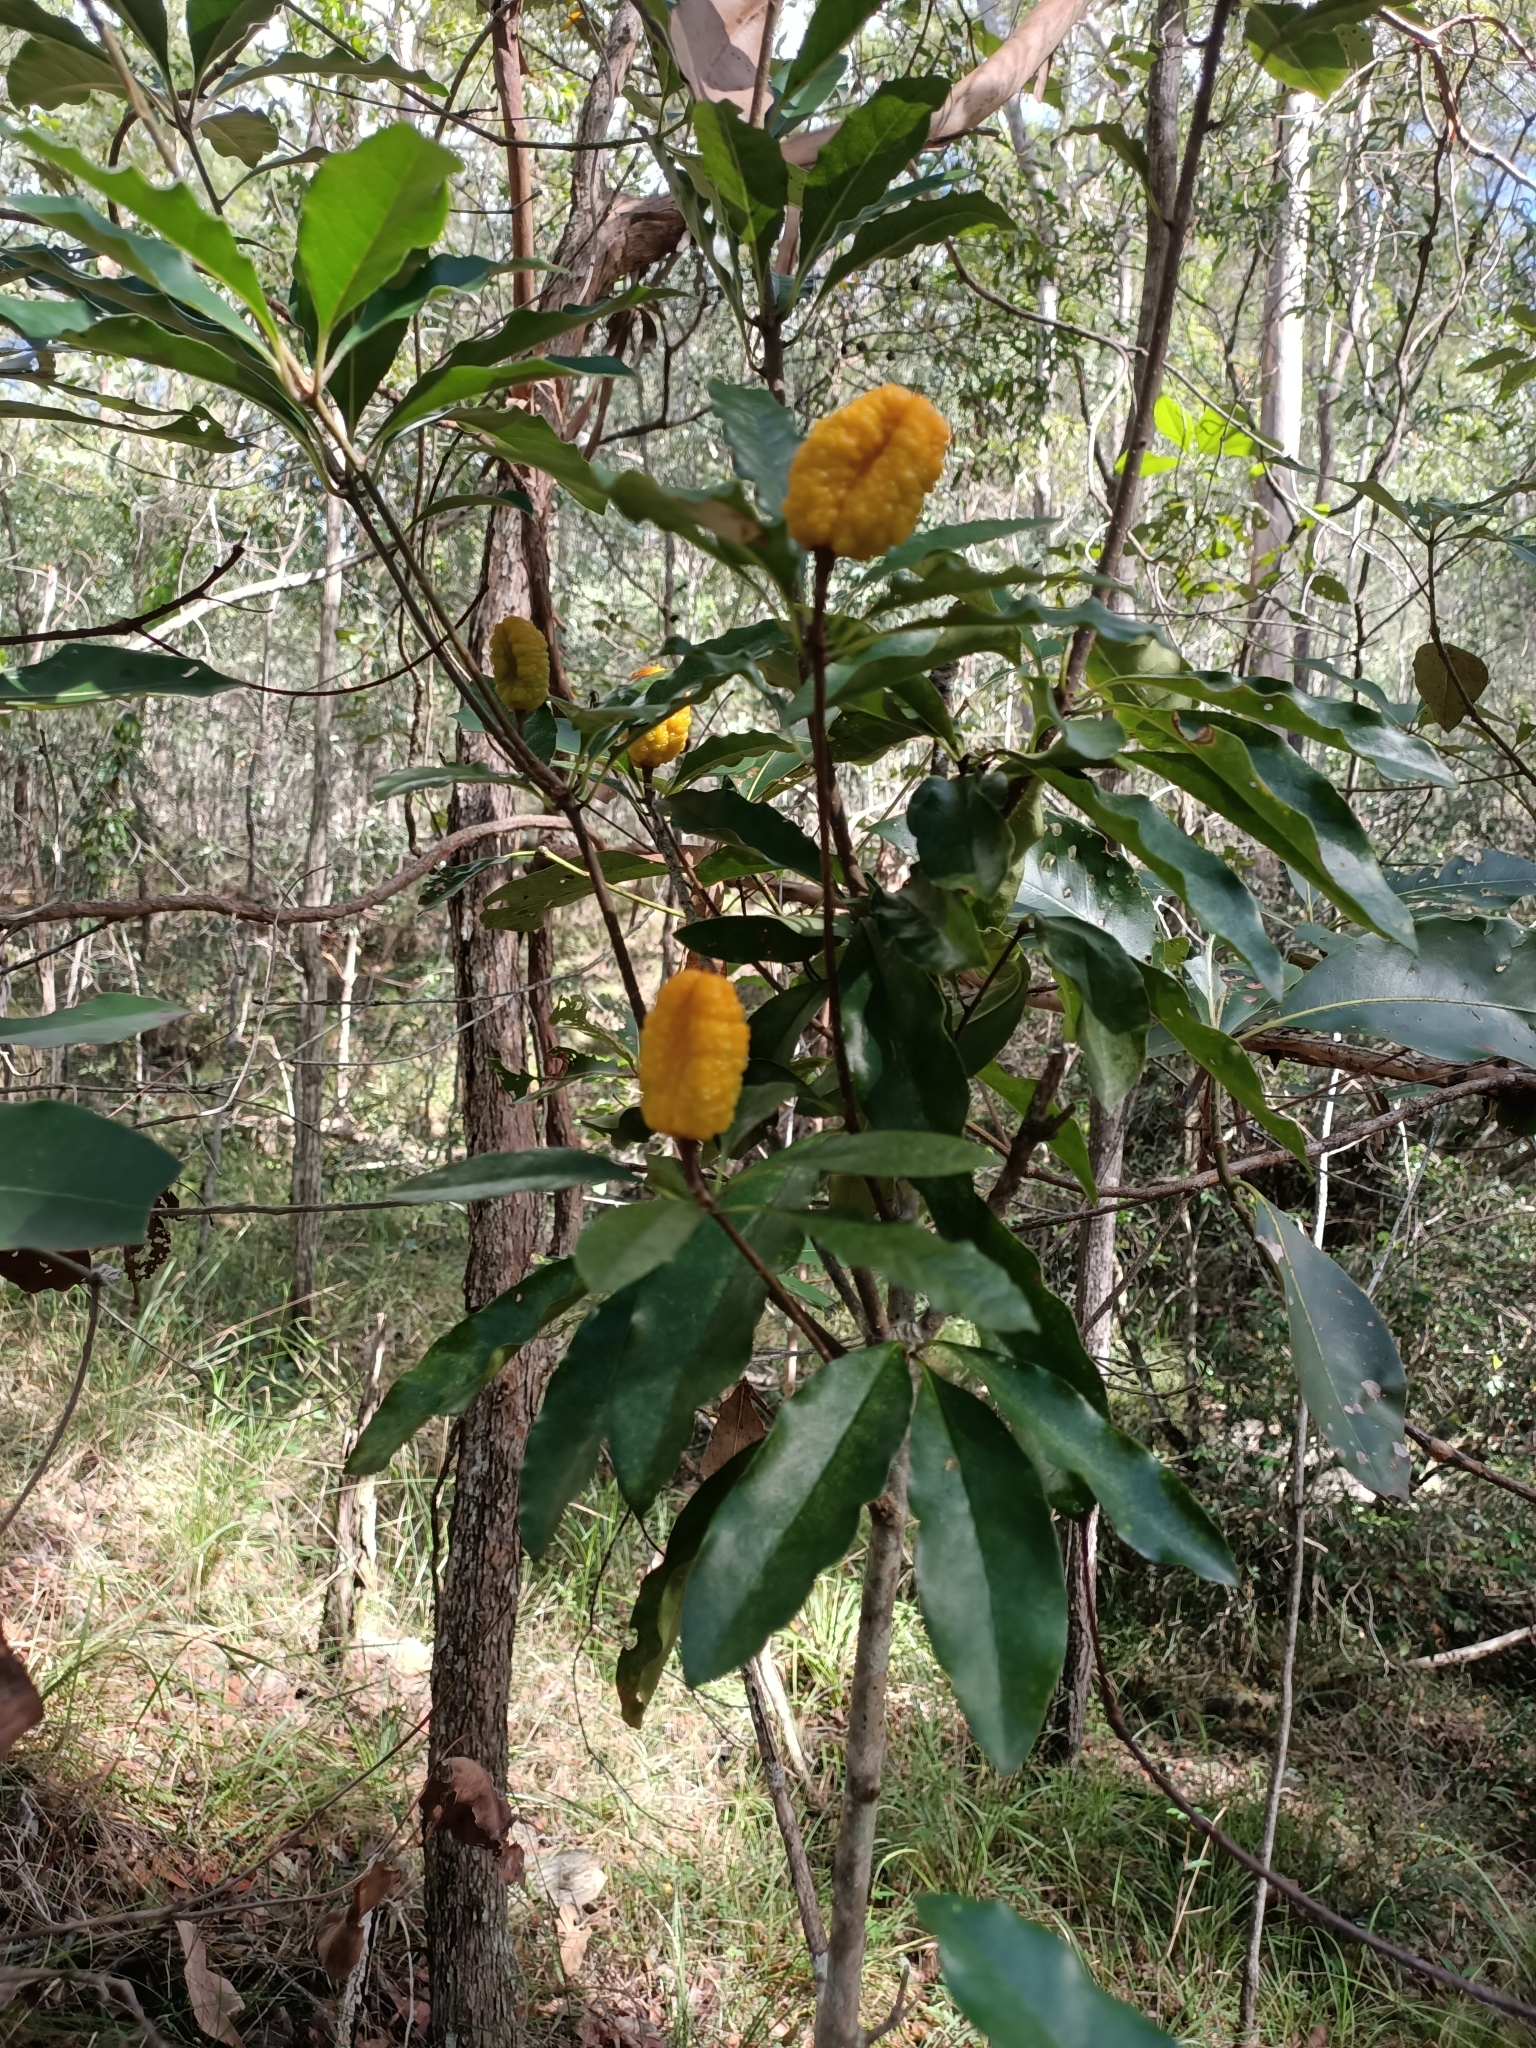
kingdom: Plantae
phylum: Tracheophyta
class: Magnoliopsida
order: Apiales
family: Pittosporaceae
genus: Pittosporum
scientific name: Pittosporum revolutum
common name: Brisbane-laurel
